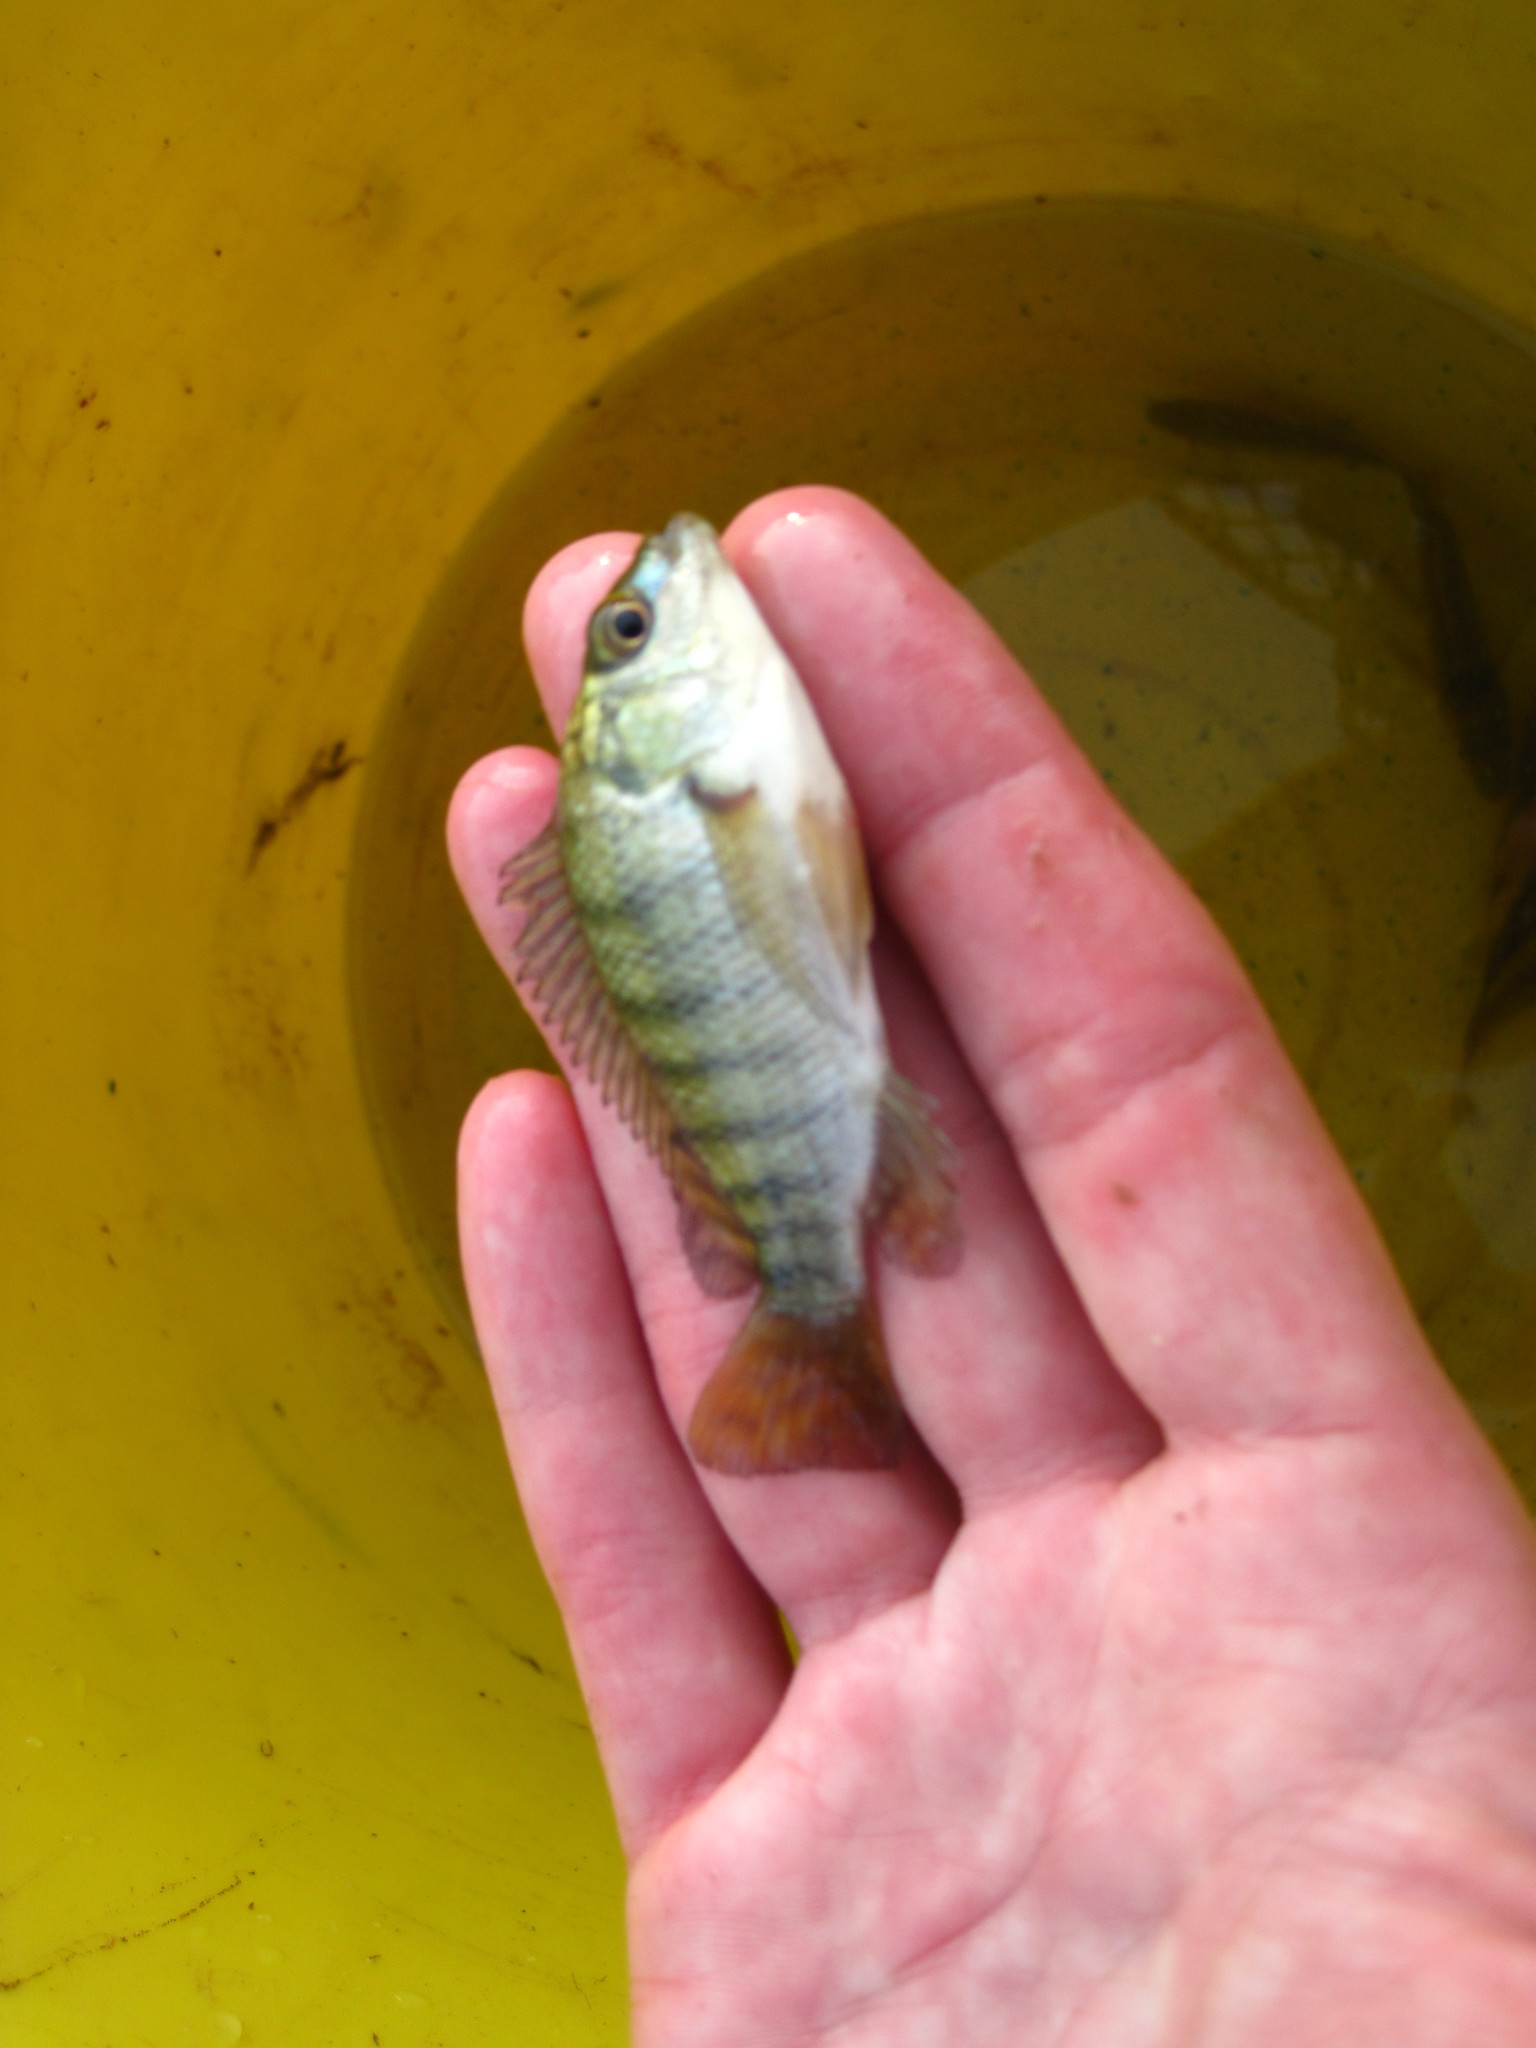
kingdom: Animalia
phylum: Chordata
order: Perciformes
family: Cichlidae
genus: Oreochromis
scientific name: Oreochromis niloticus
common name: Nile tilapia
